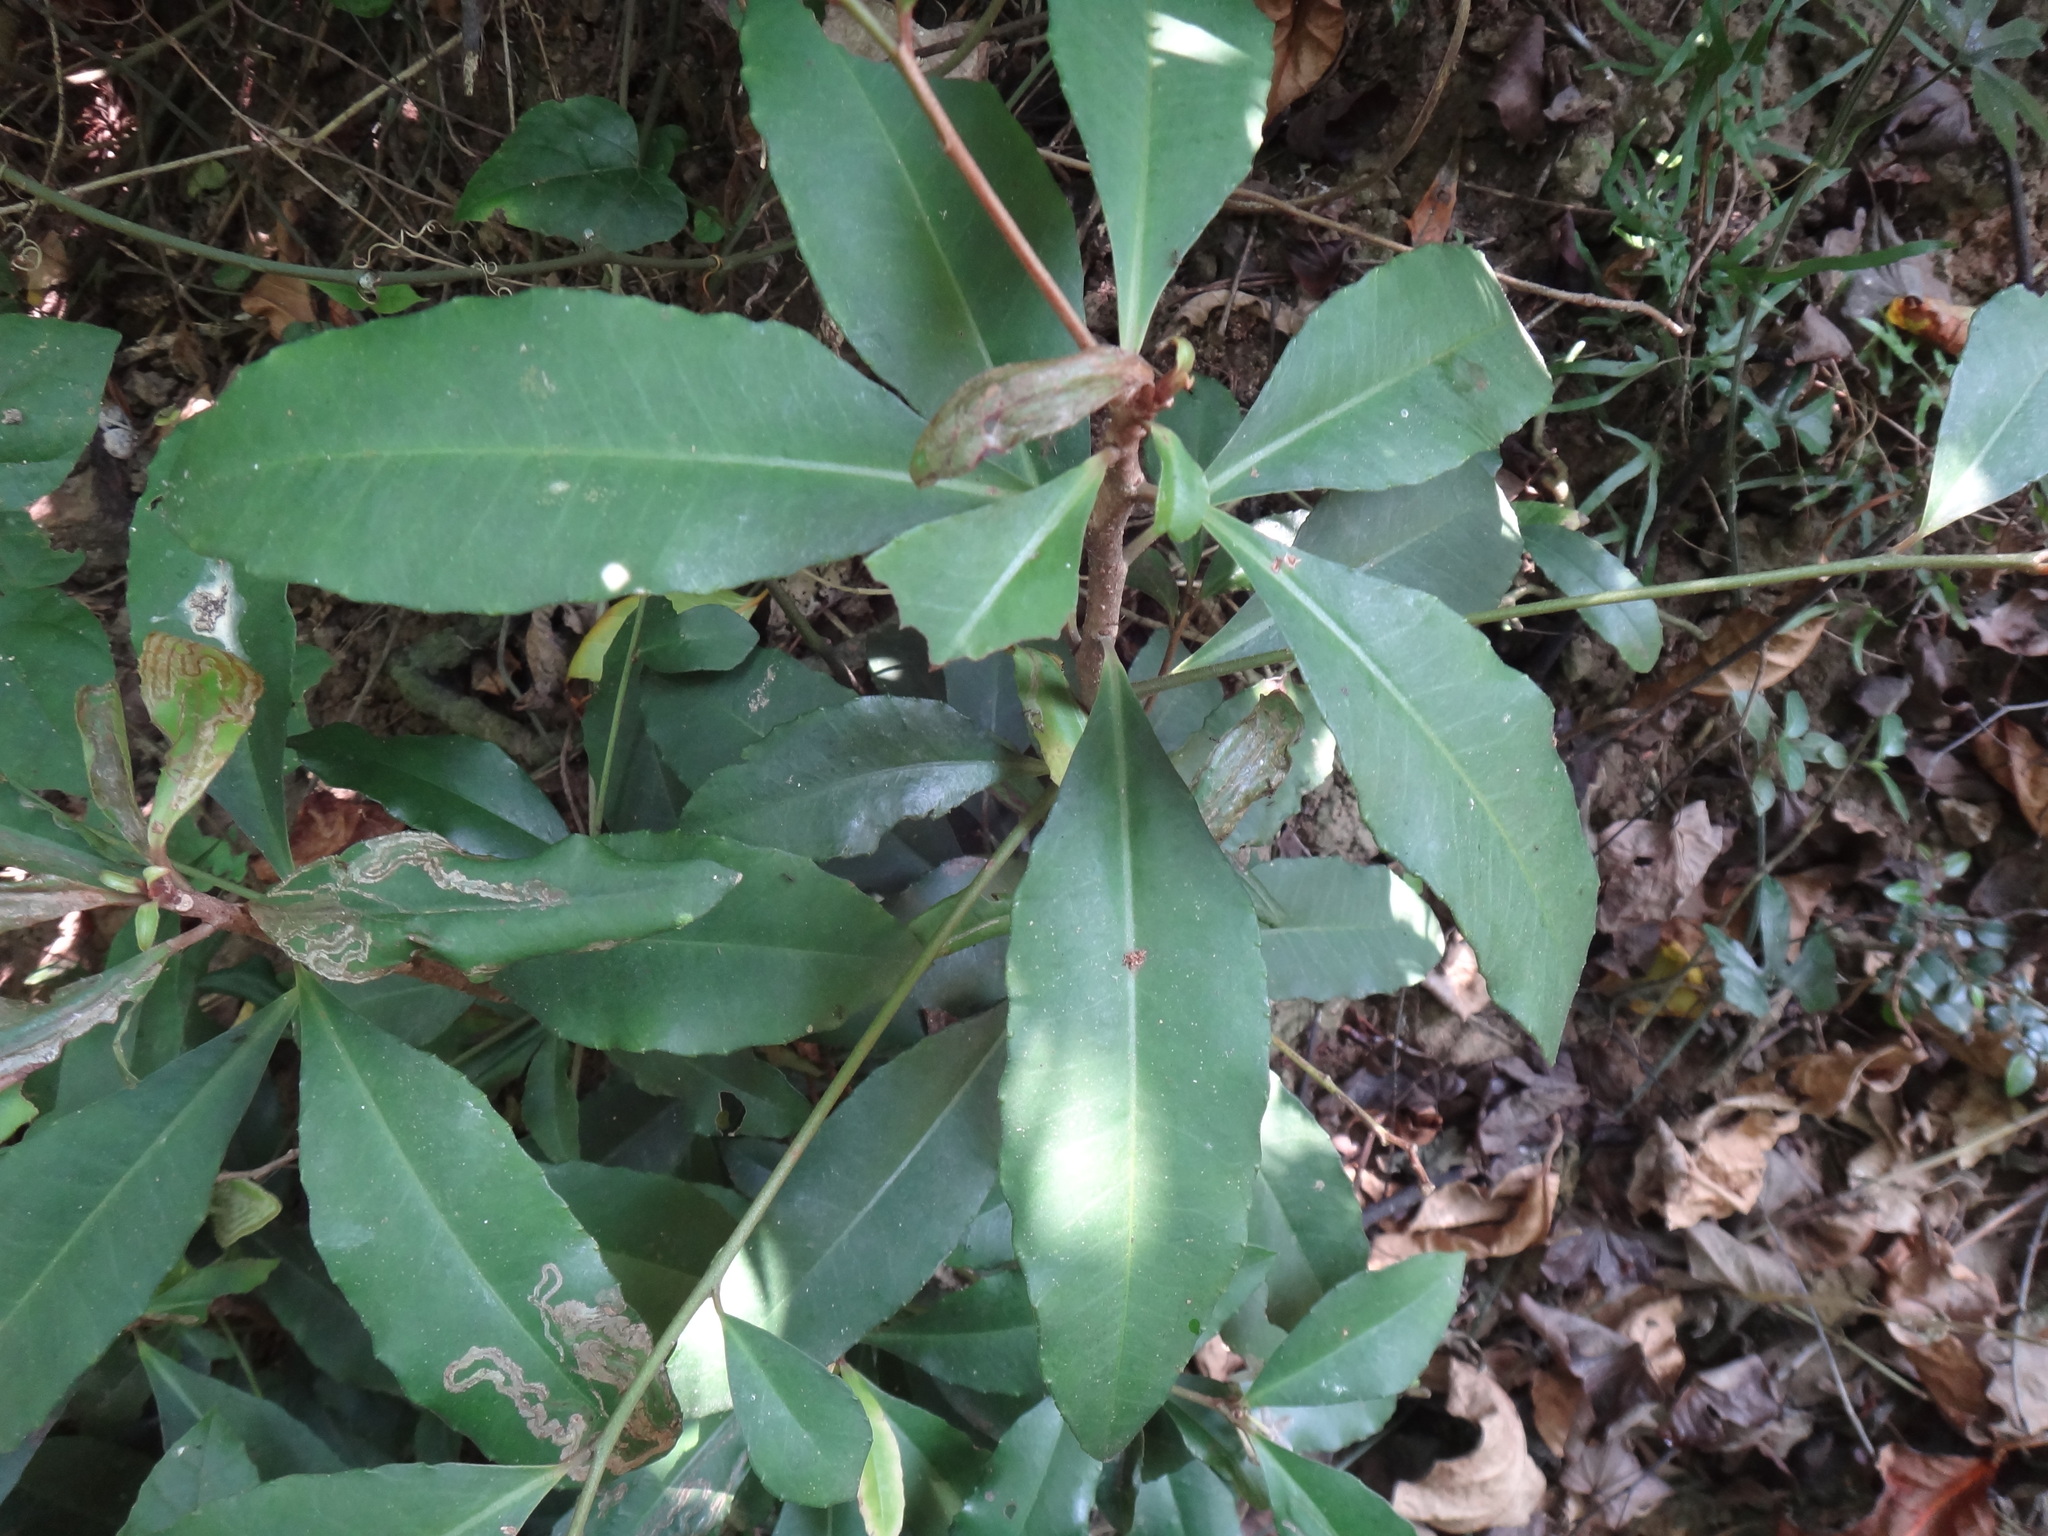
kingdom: Plantae
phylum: Tracheophyta
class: Magnoliopsida
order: Ericales
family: Primulaceae
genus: Ardisia
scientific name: Ardisia cornudentata
